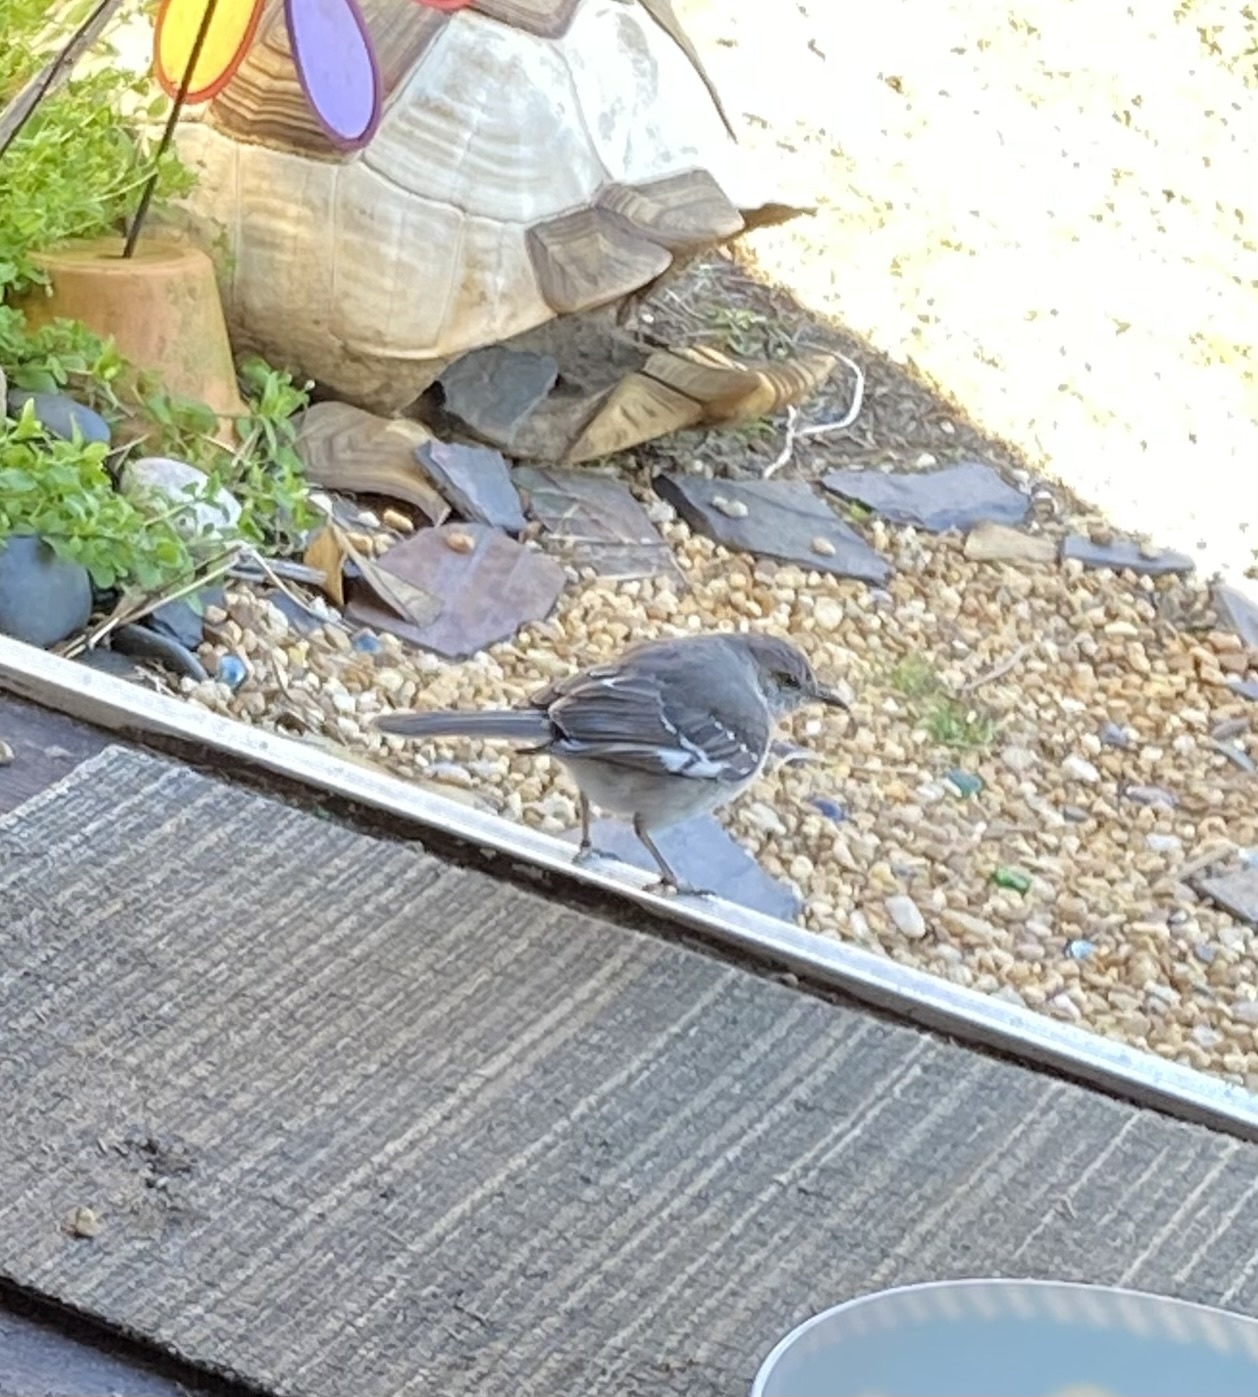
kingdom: Animalia
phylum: Chordata
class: Aves
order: Passeriformes
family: Mimidae
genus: Mimus
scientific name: Mimus polyglottos
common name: Northern mockingbird
